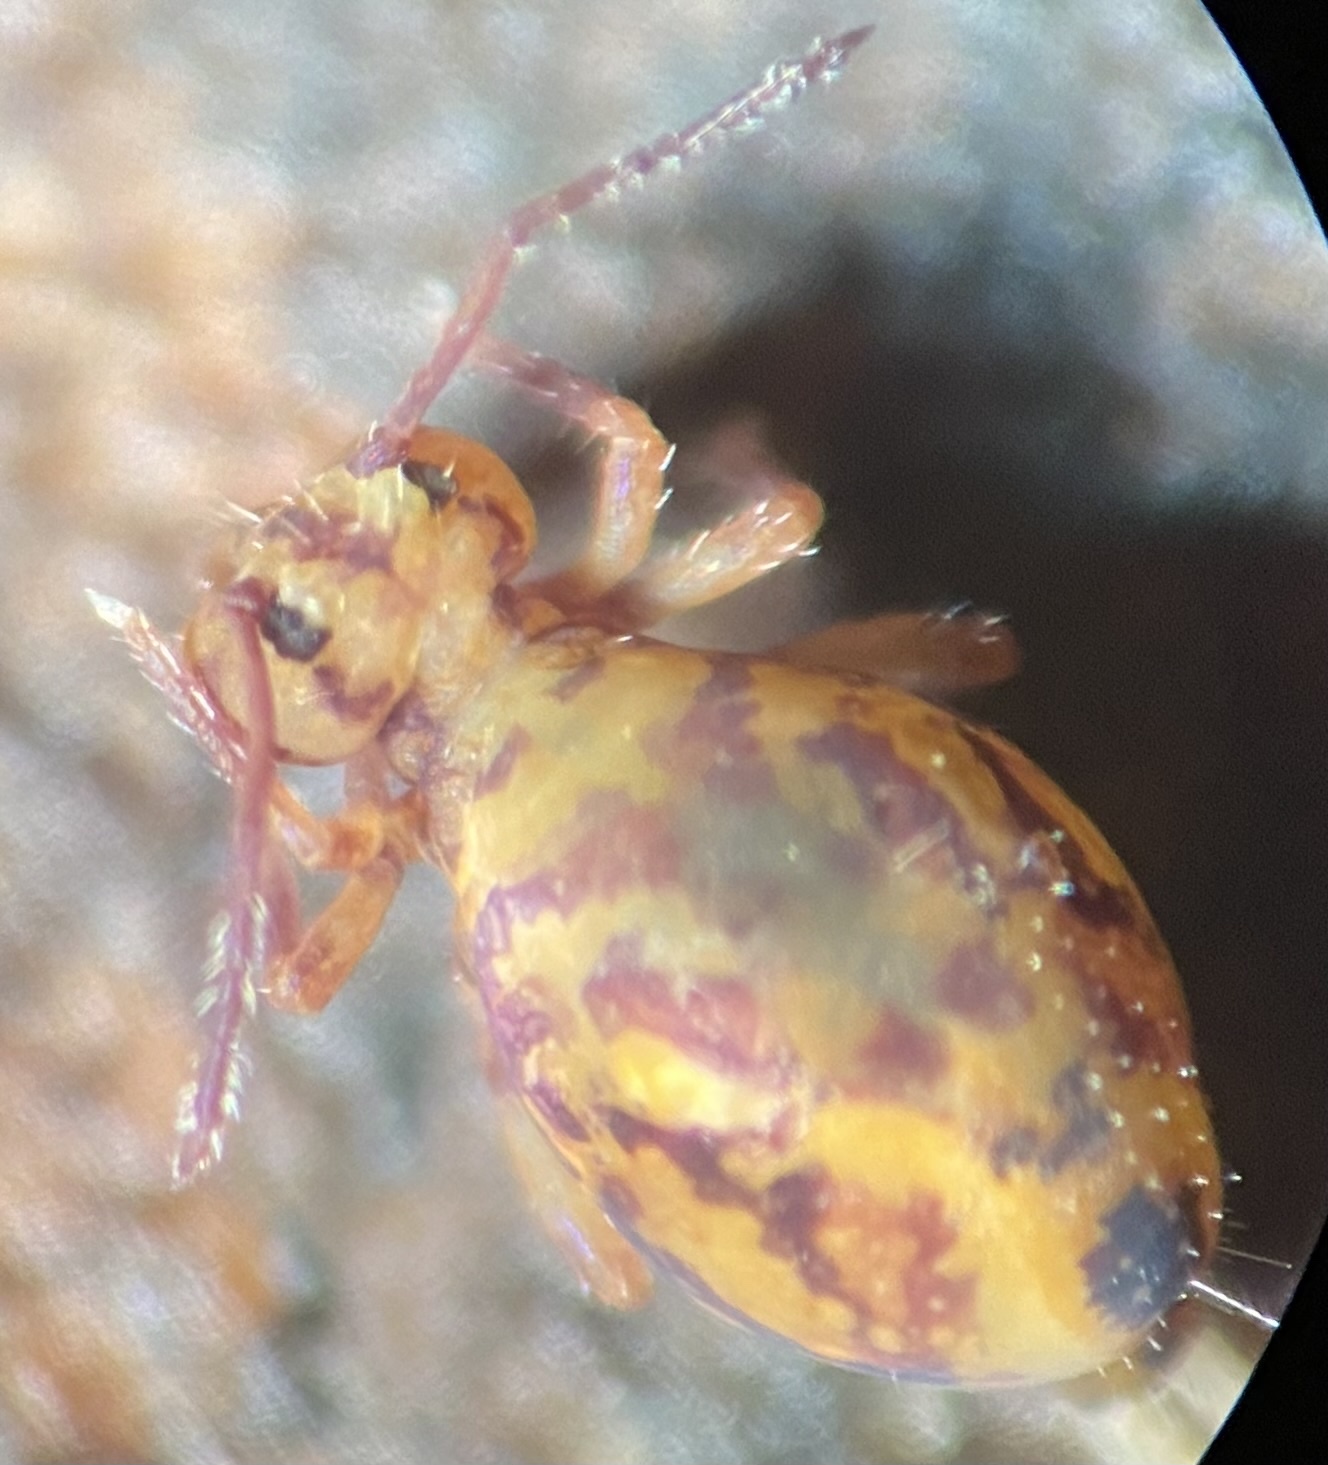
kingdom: Animalia
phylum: Arthropoda
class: Collembola
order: Symphypleona
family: Dicyrtomidae
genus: Dicyrtomina
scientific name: Dicyrtomina ornata
